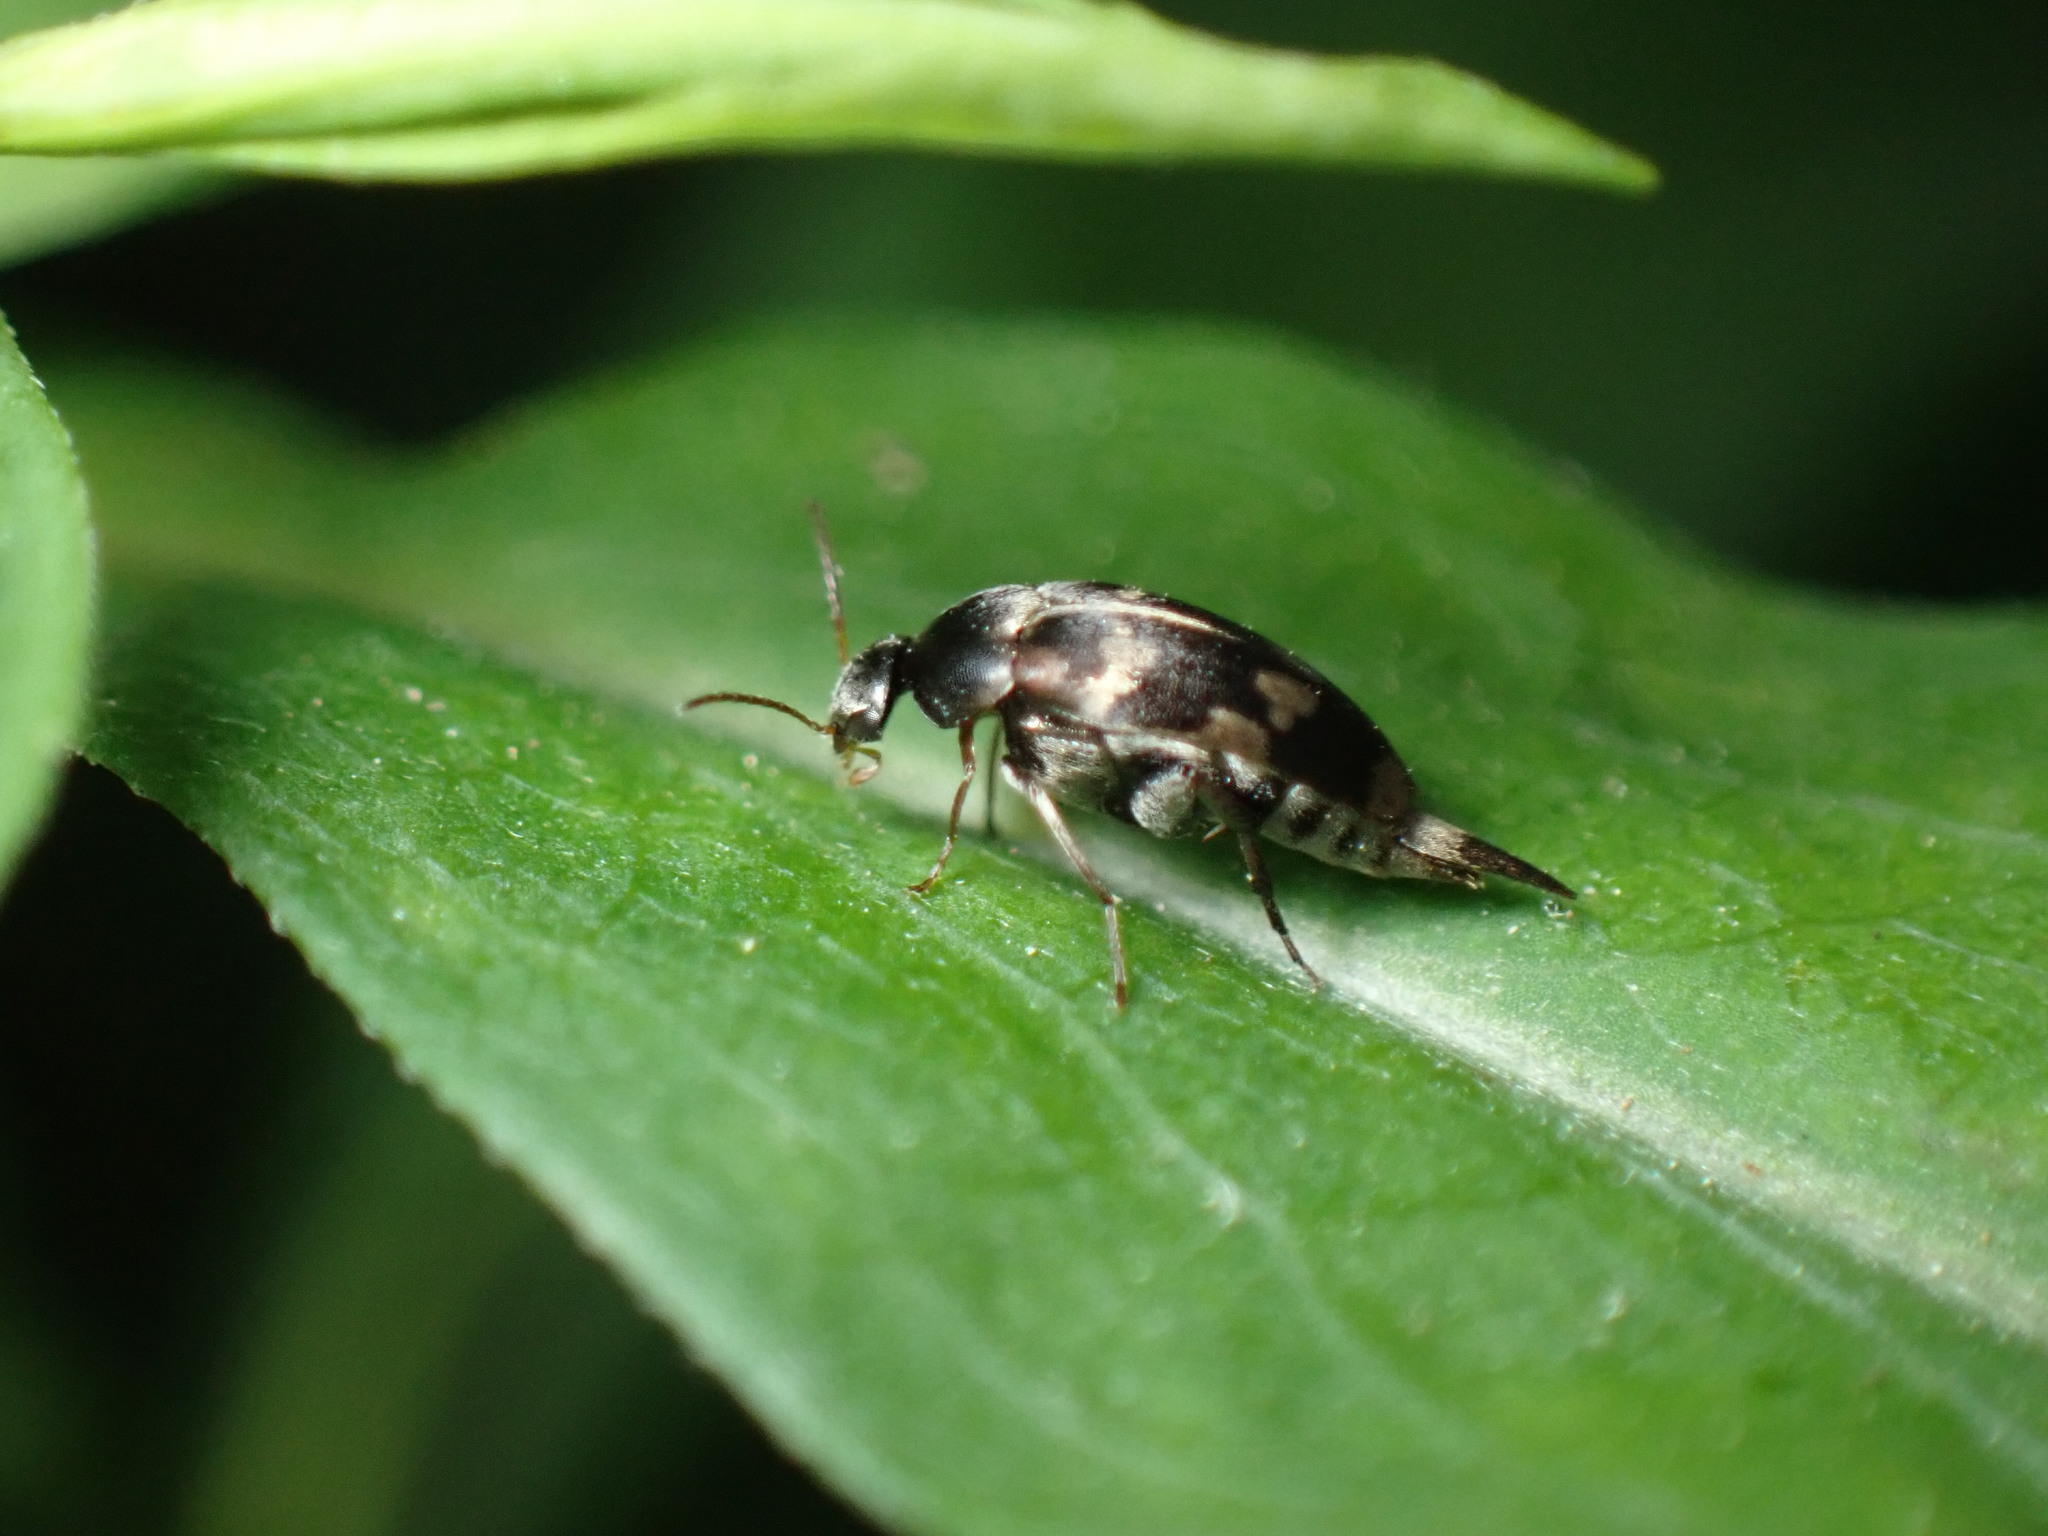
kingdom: Animalia
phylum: Arthropoda
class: Insecta
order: Coleoptera
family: Mordellidae
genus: Falsomordellistena
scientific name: Falsomordellistena pubescens
